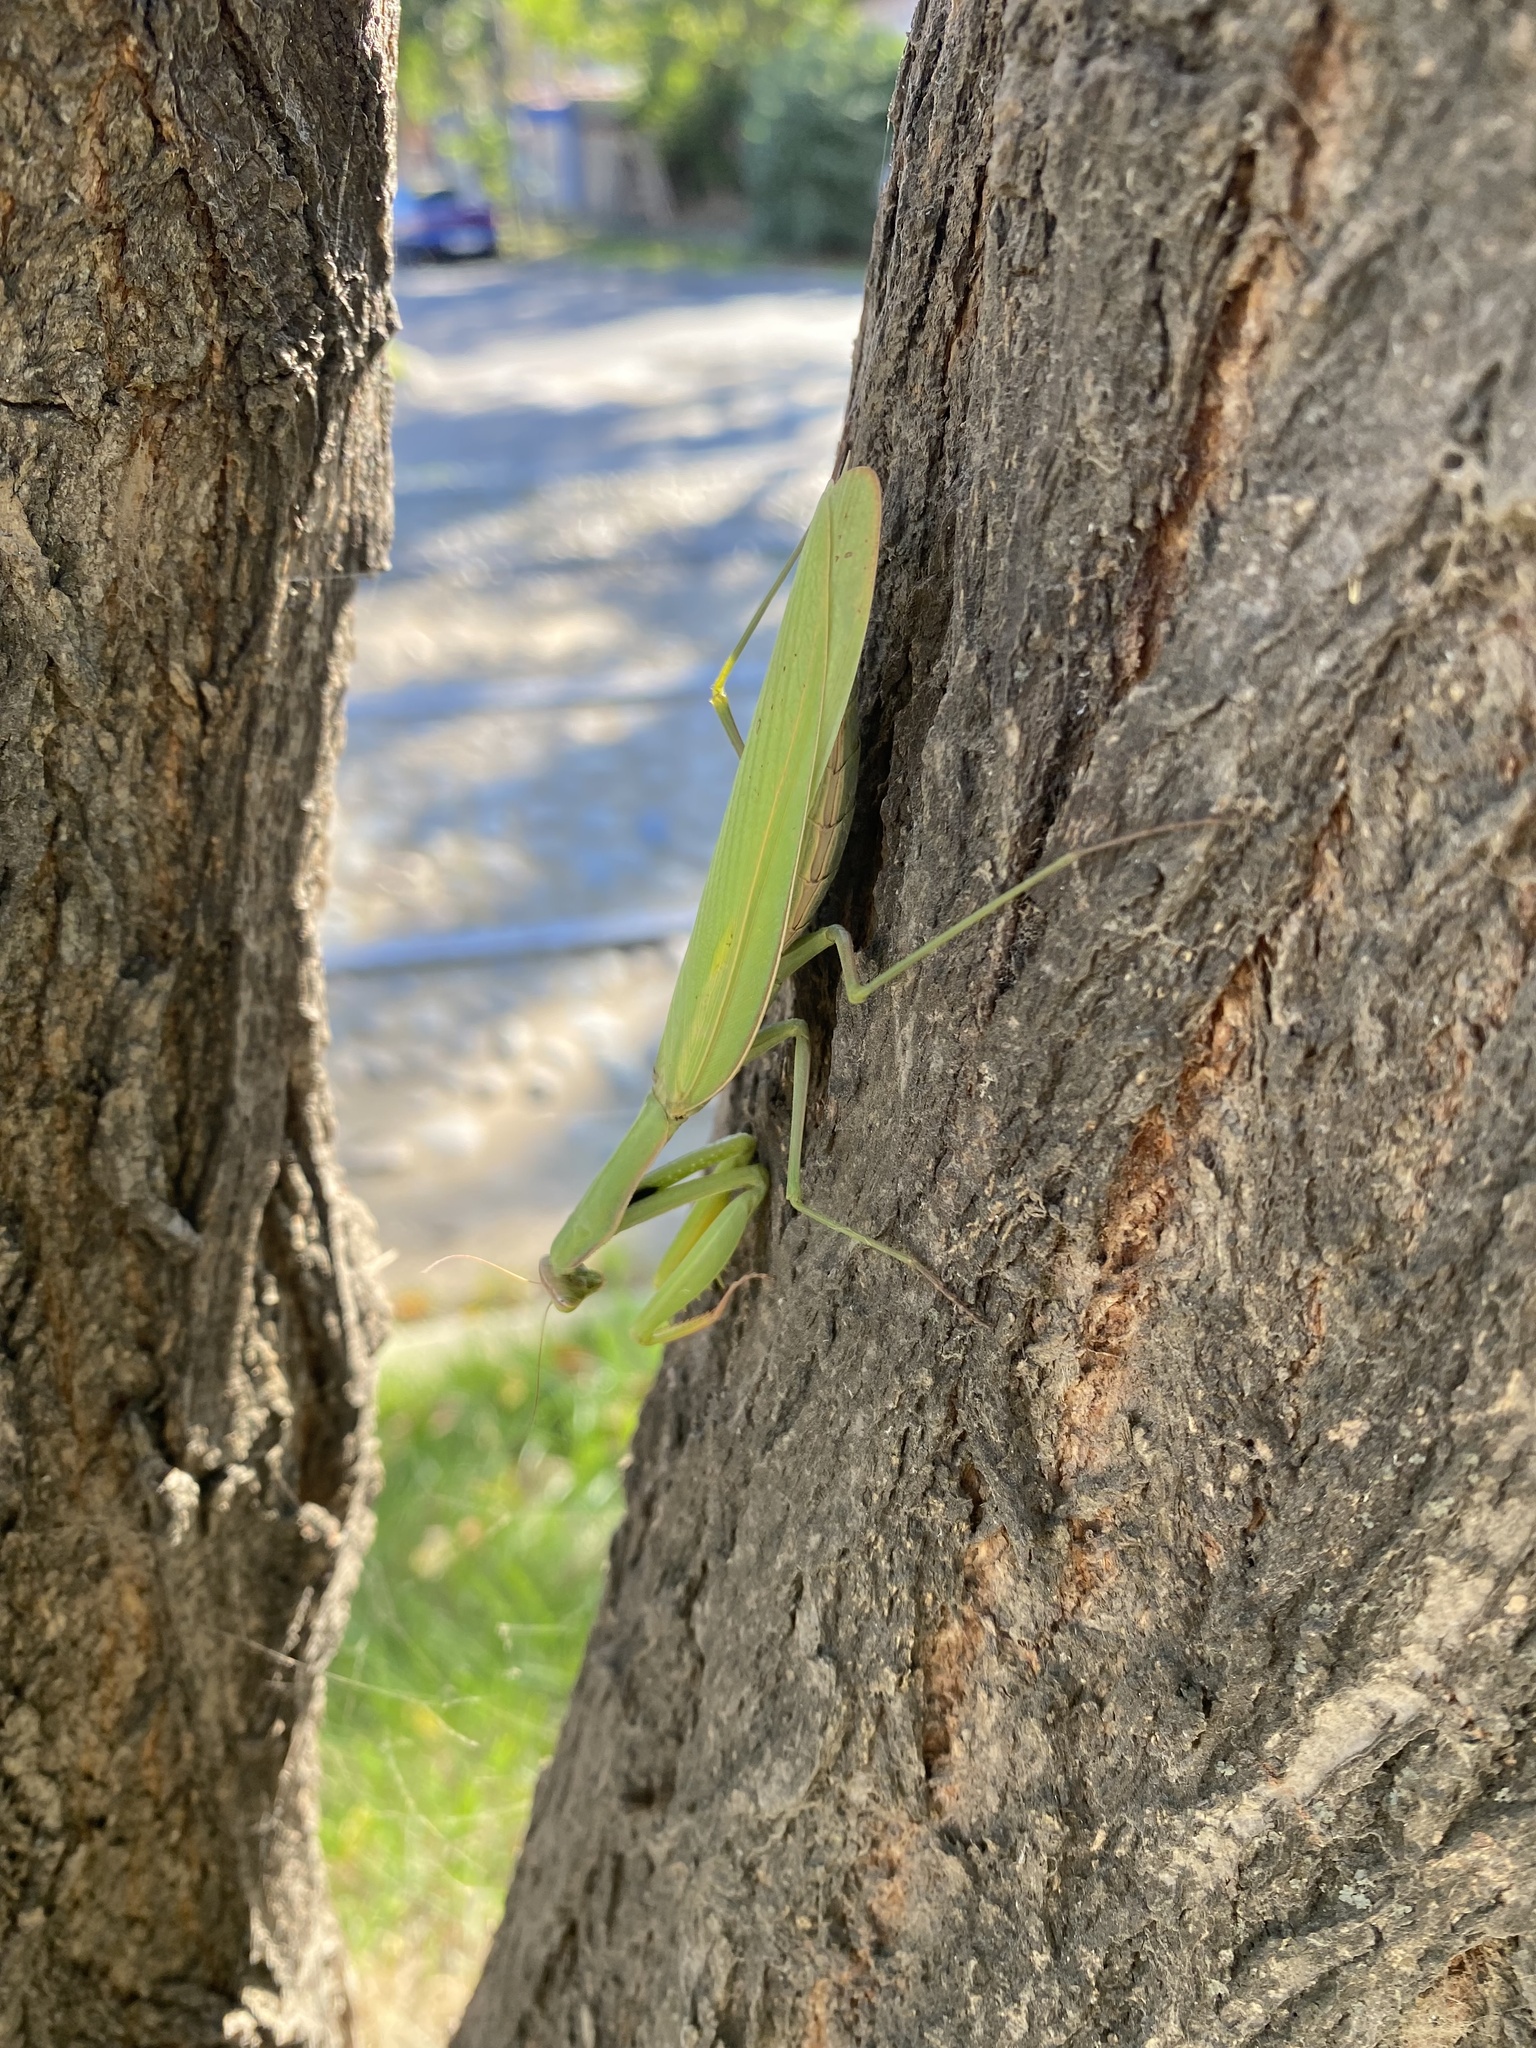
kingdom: Animalia
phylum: Arthropoda
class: Insecta
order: Mantodea
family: Mantidae
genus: Mantis
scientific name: Mantis religiosa
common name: Praying mantis
